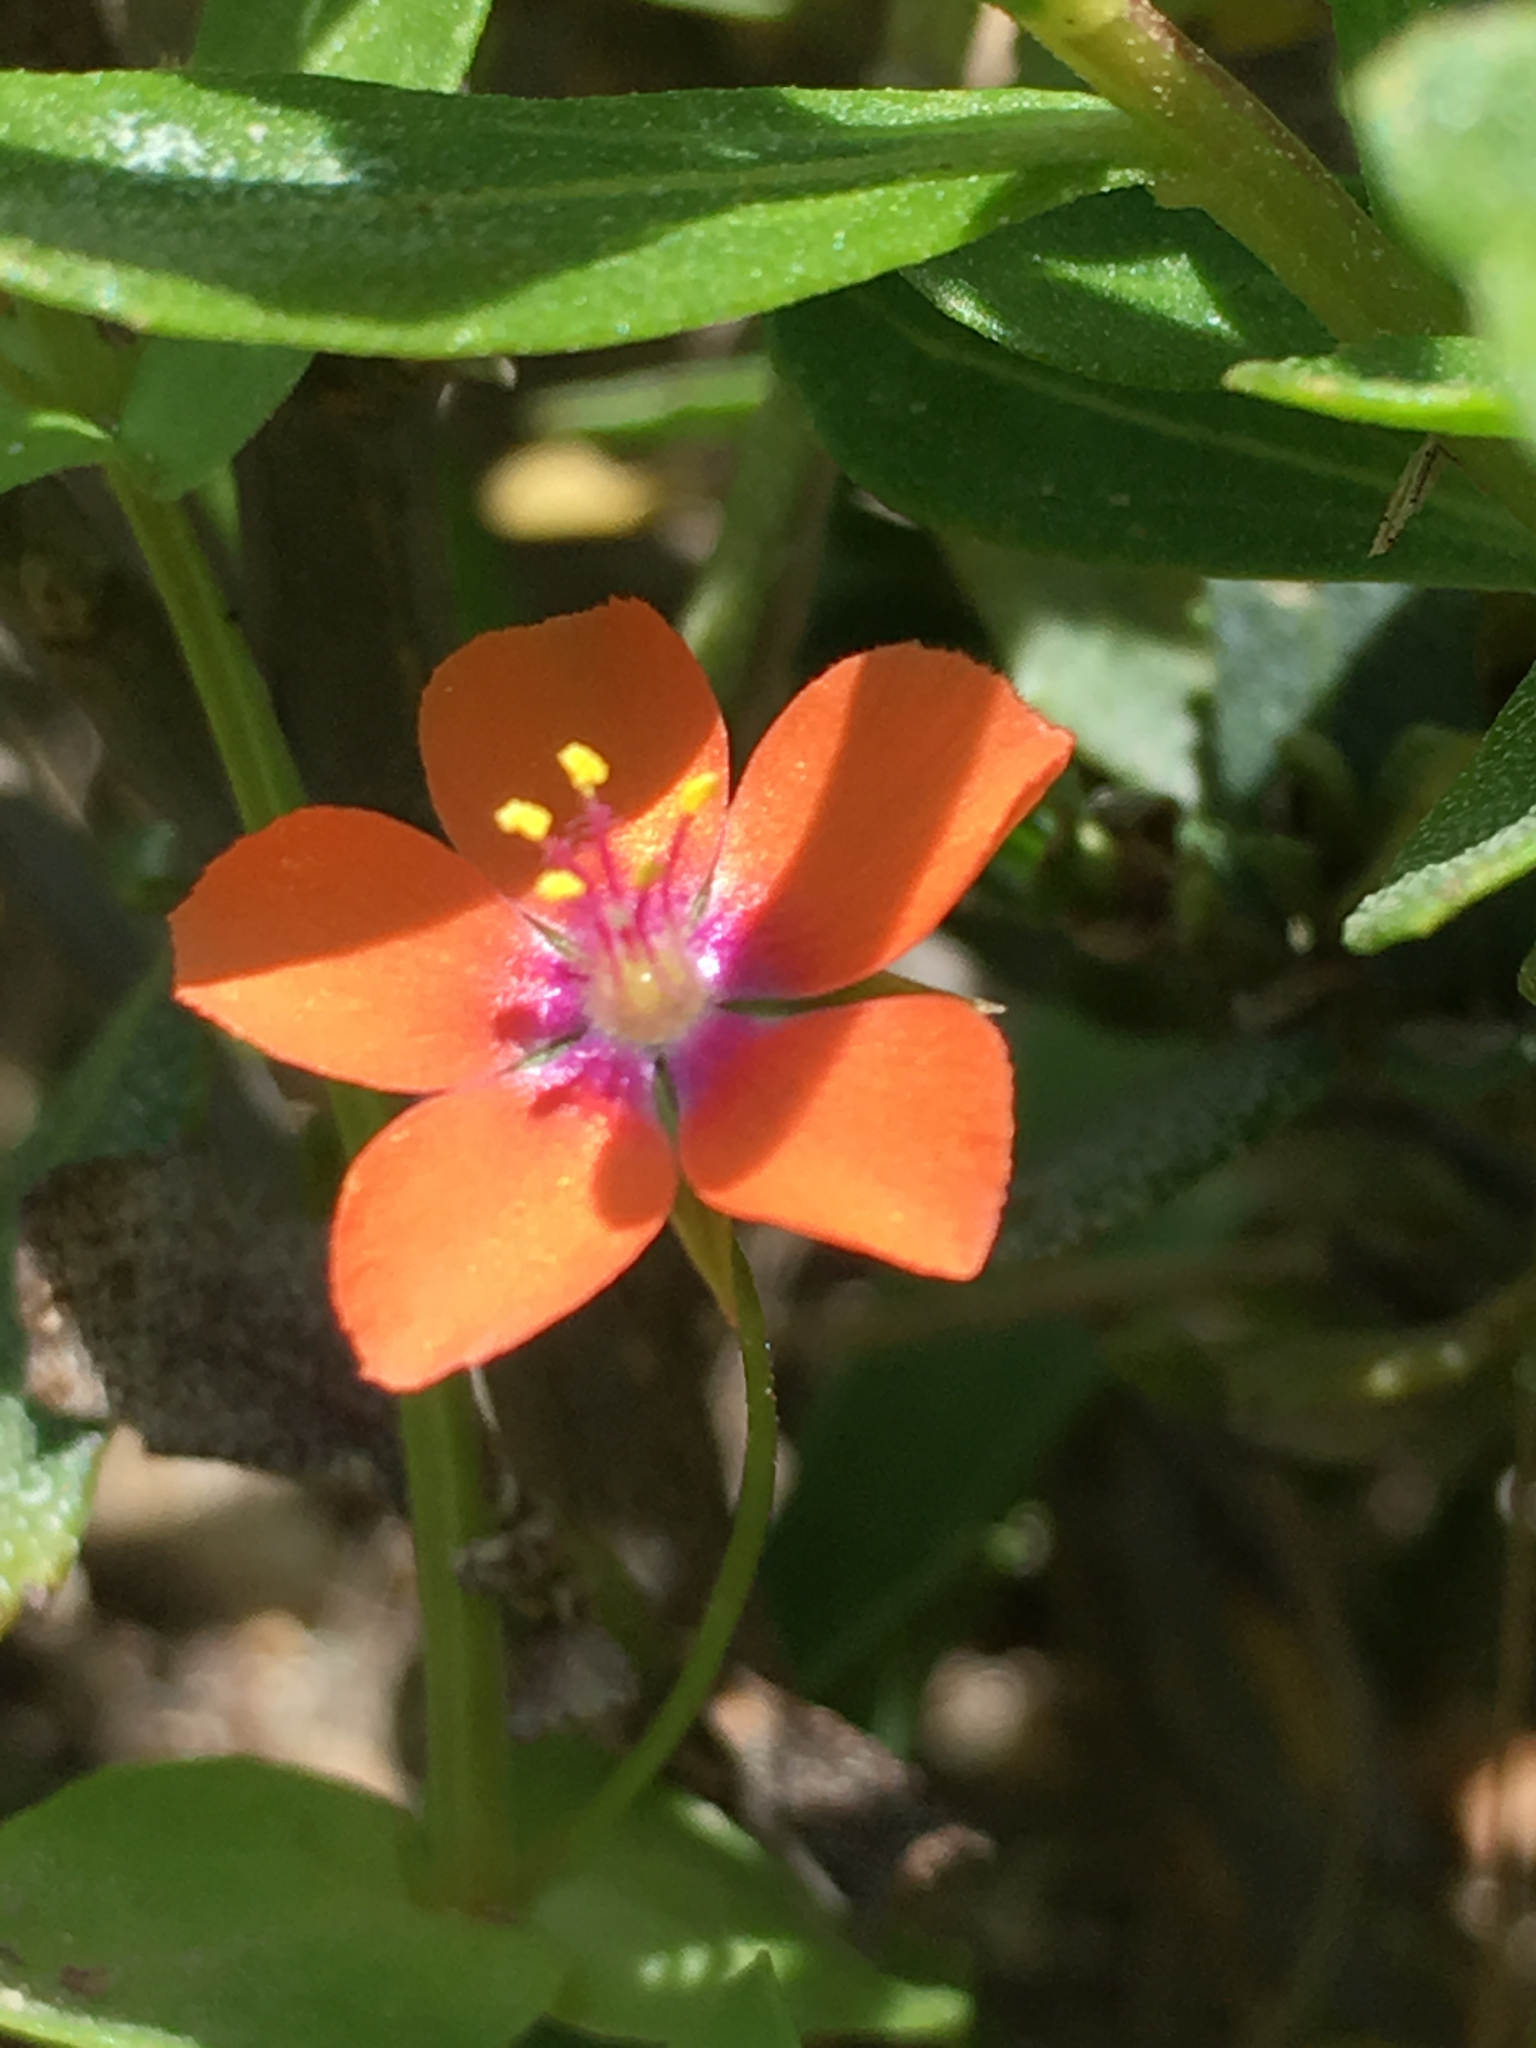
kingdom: Plantae
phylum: Tracheophyta
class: Magnoliopsida
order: Ericales
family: Primulaceae
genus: Lysimachia
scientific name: Lysimachia arvensis
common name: Scarlet pimpernel
